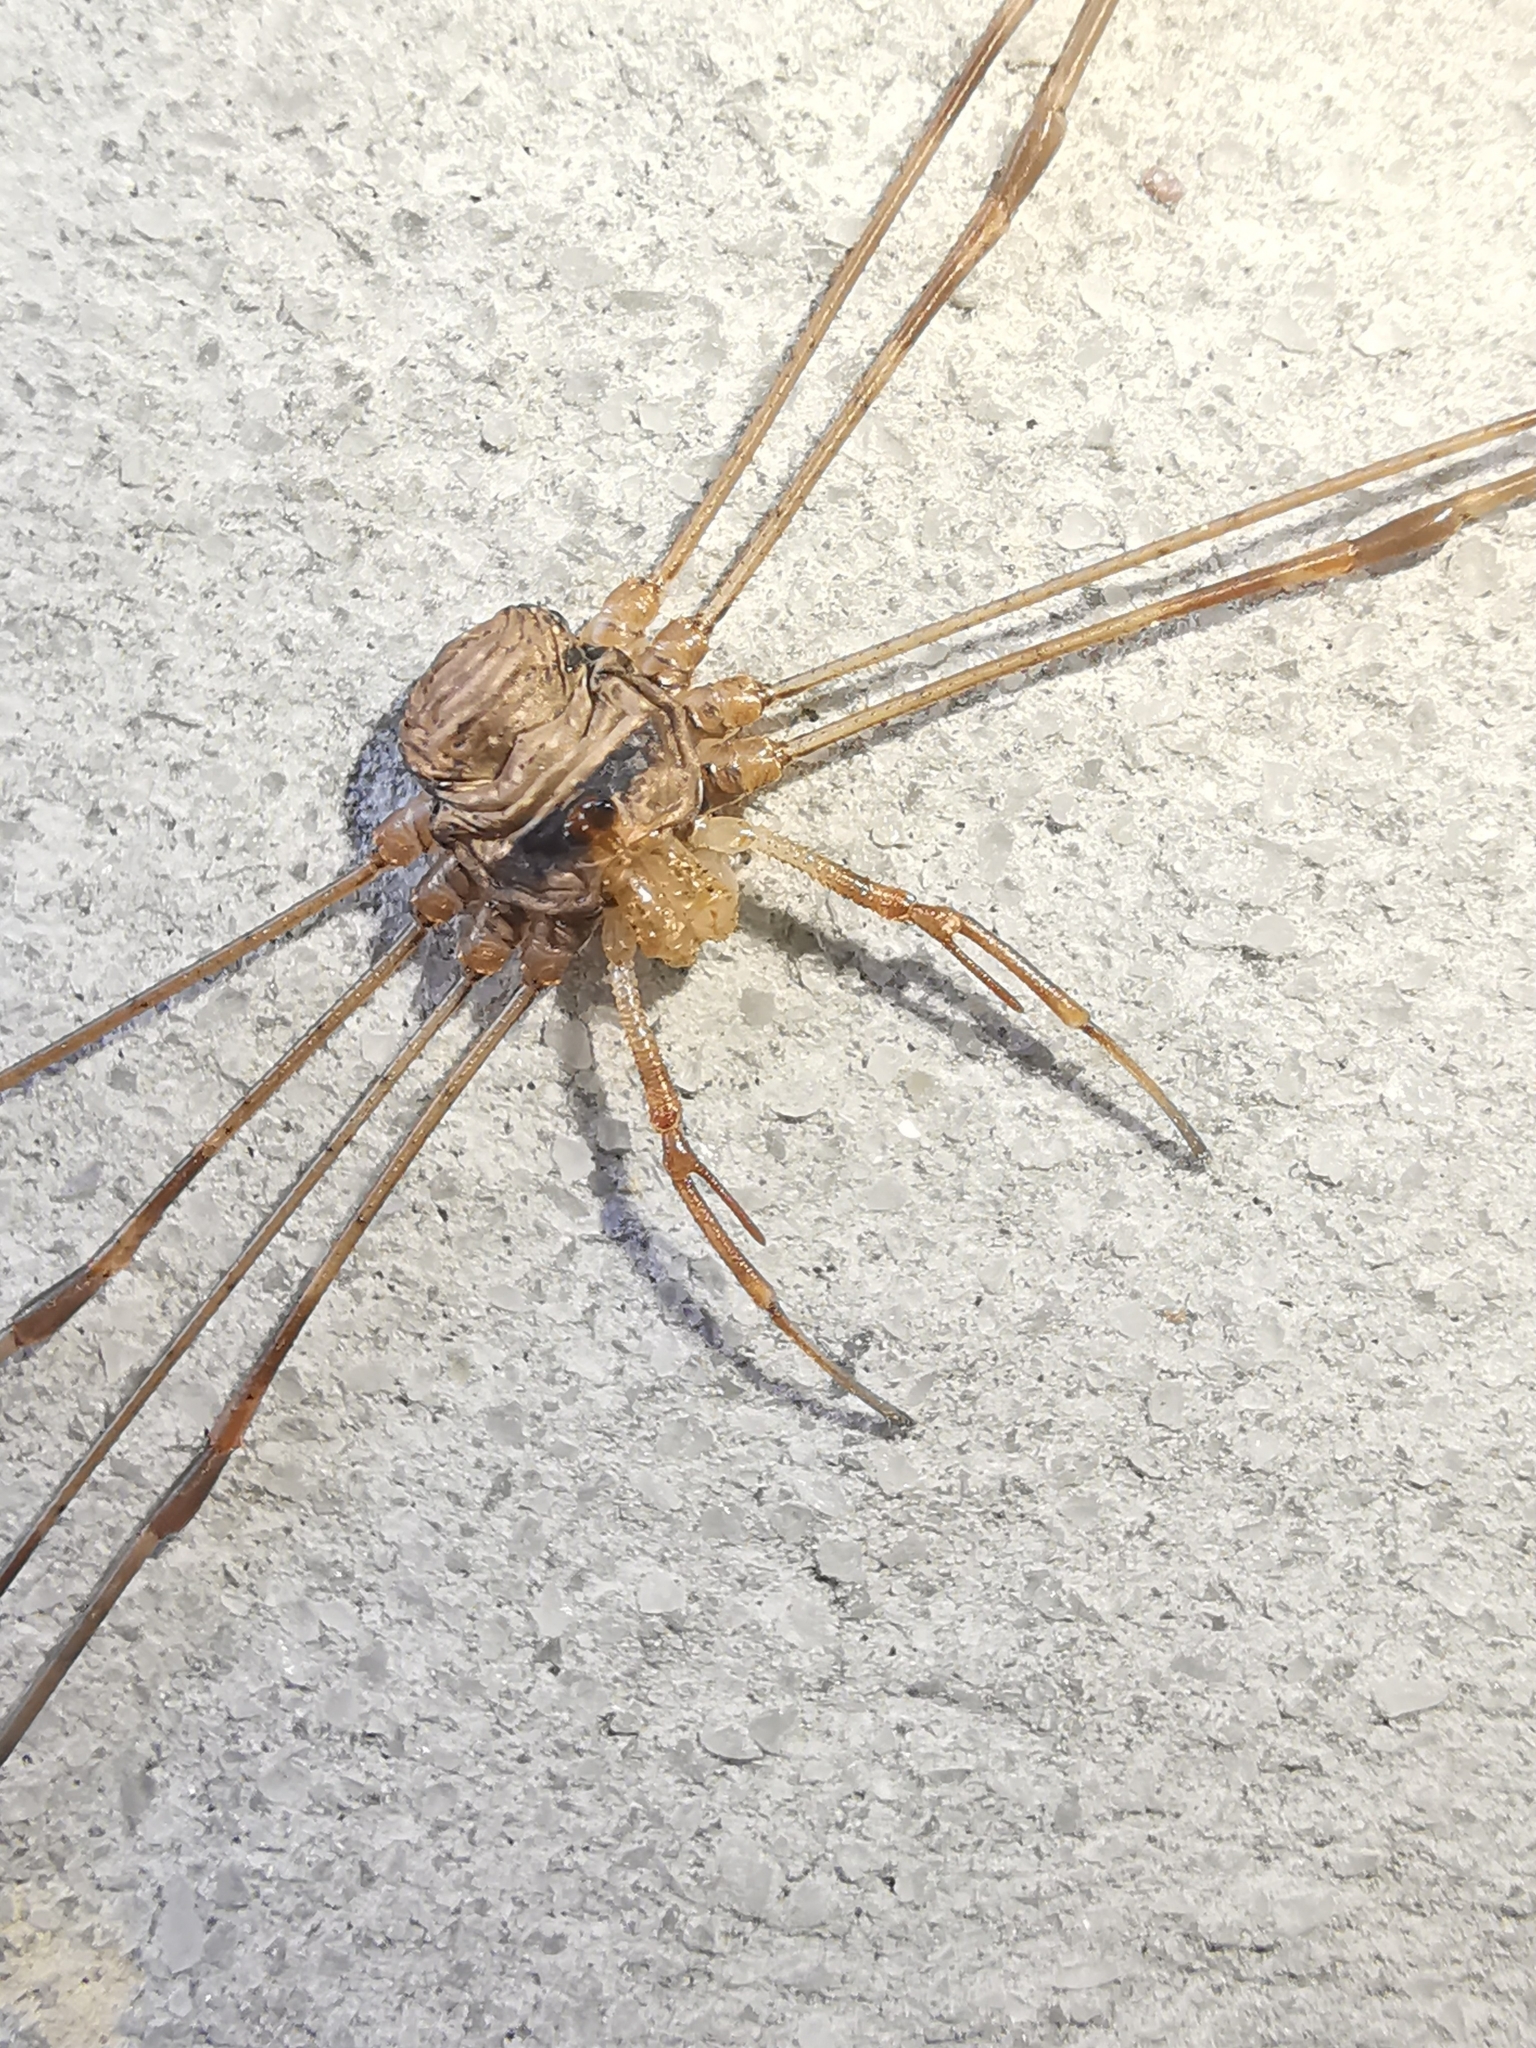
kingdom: Animalia
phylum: Arthropoda
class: Arachnida
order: Opiliones
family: Phalangiidae
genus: Dicranopalpus
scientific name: Dicranopalpus ramosus
